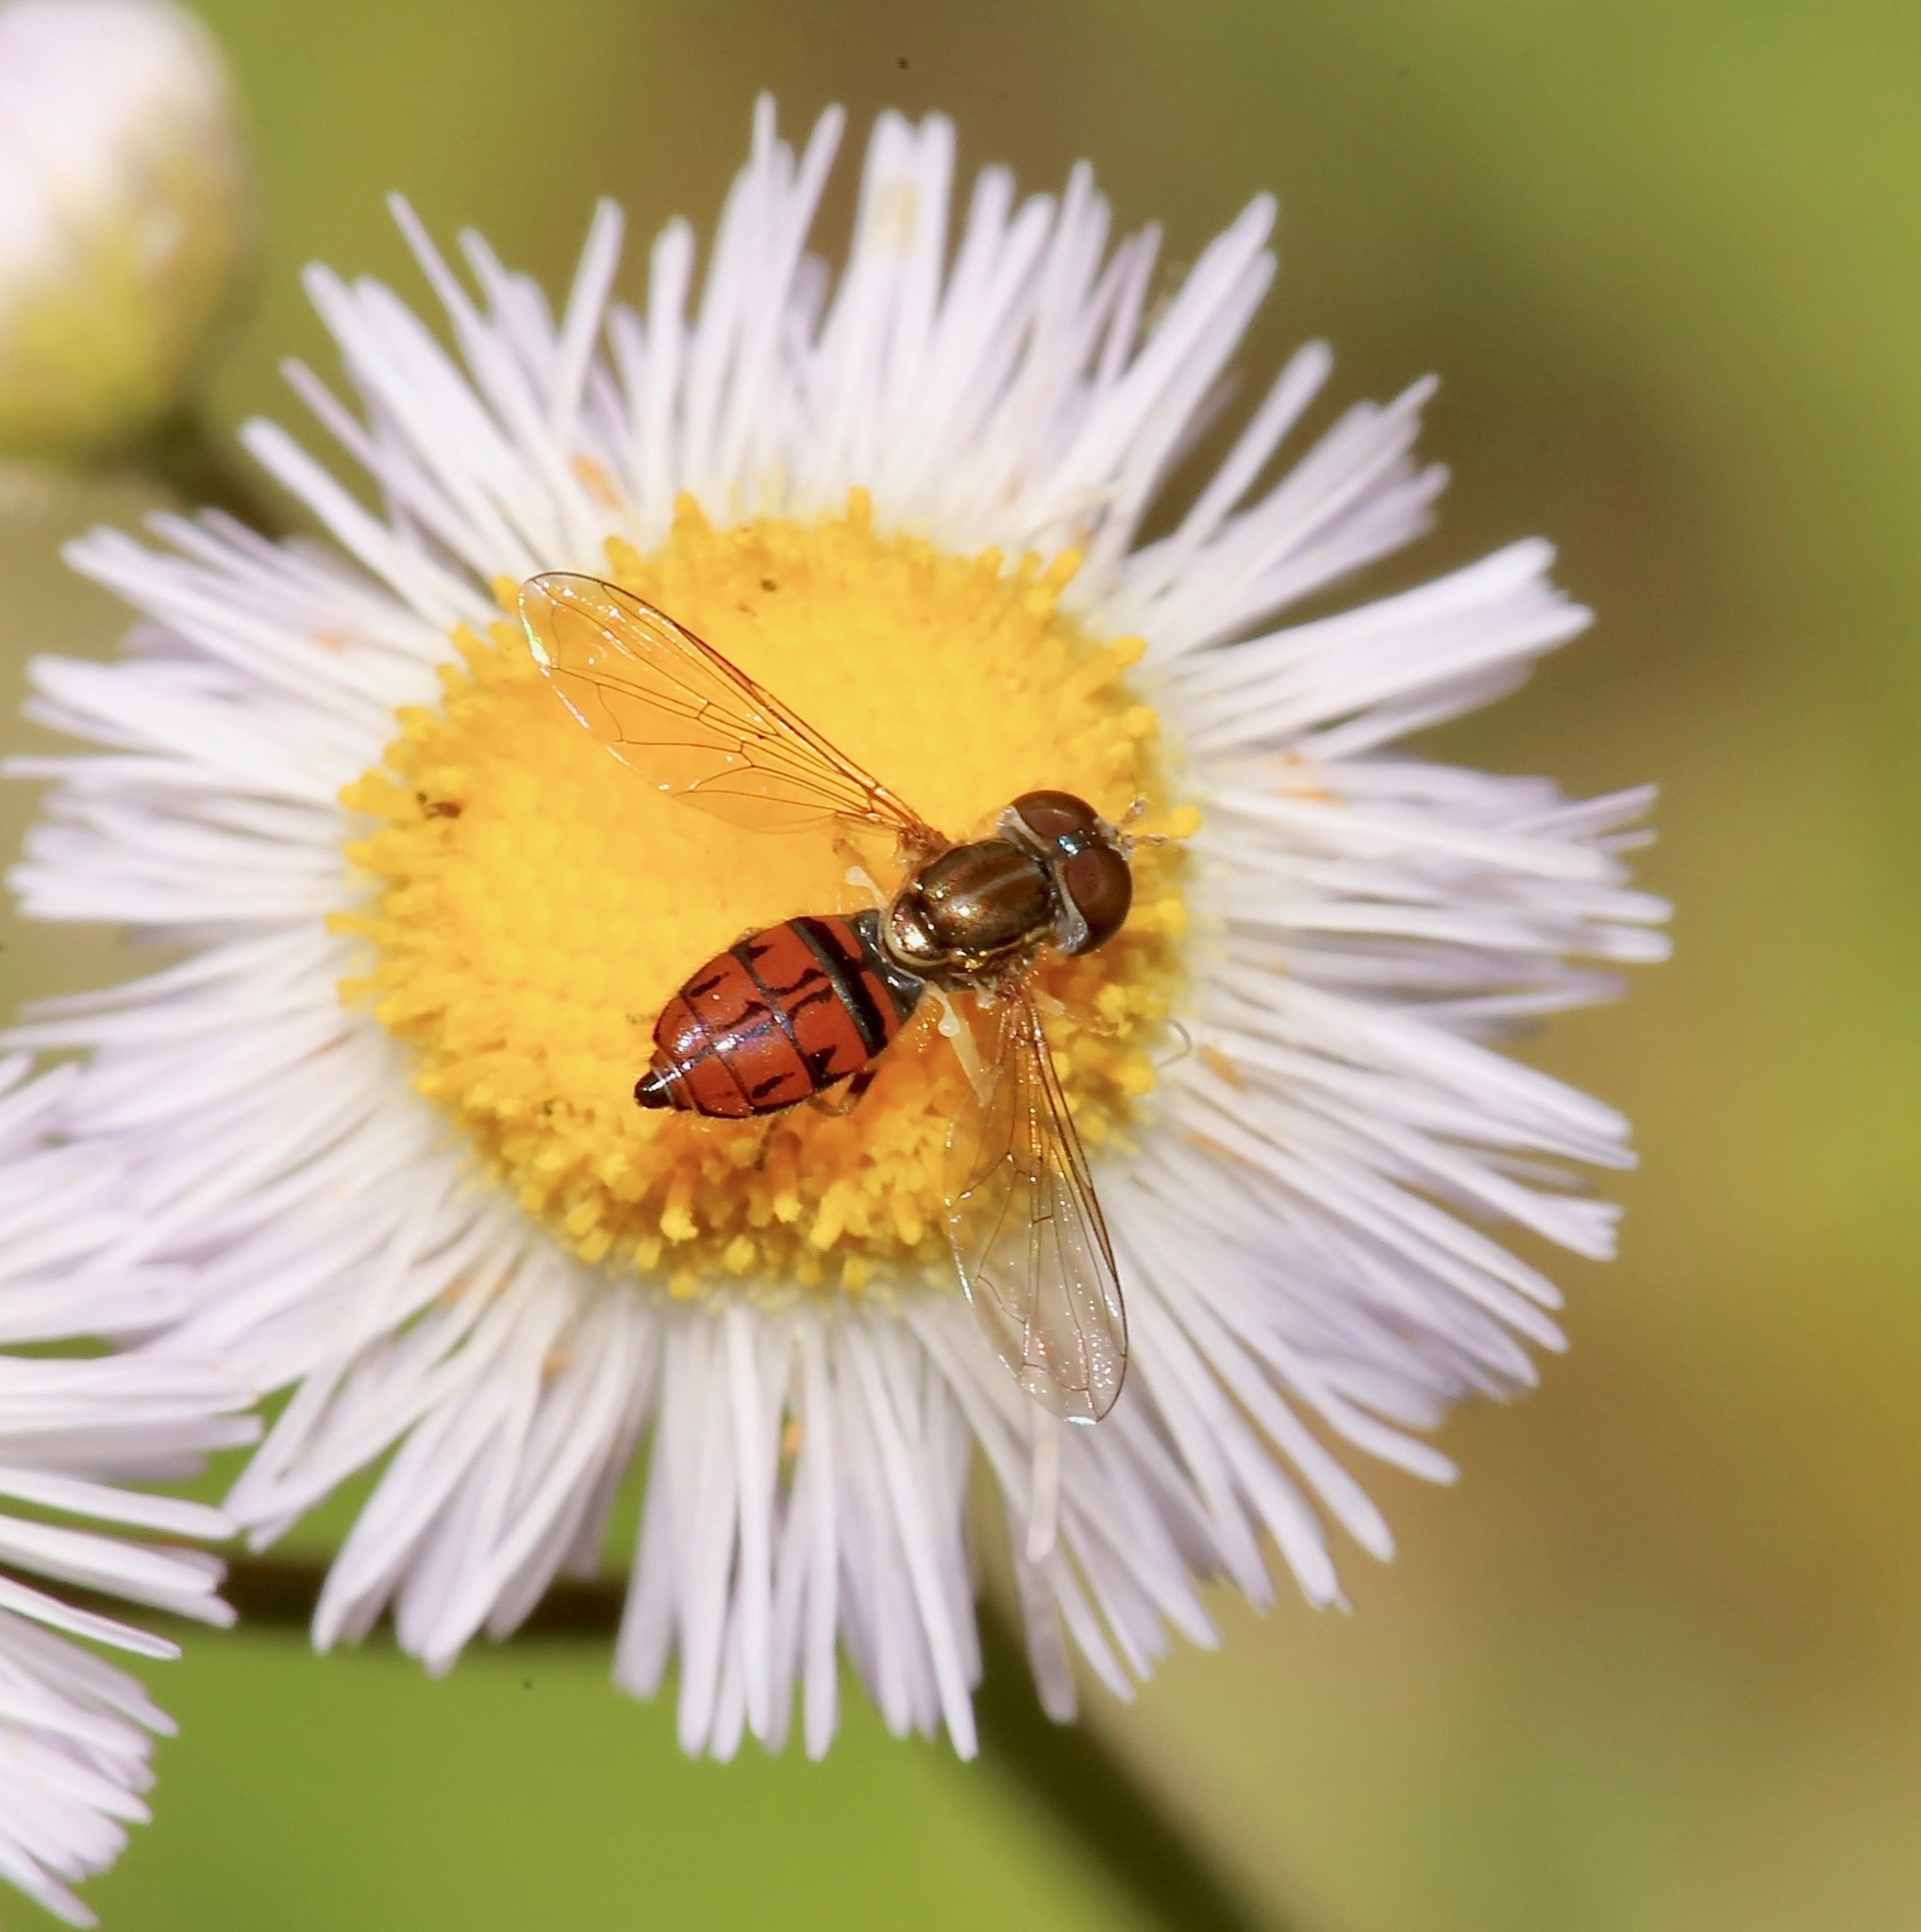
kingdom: Animalia
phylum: Arthropoda
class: Insecta
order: Diptera
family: Syrphidae
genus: Toxomerus
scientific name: Toxomerus boscii
